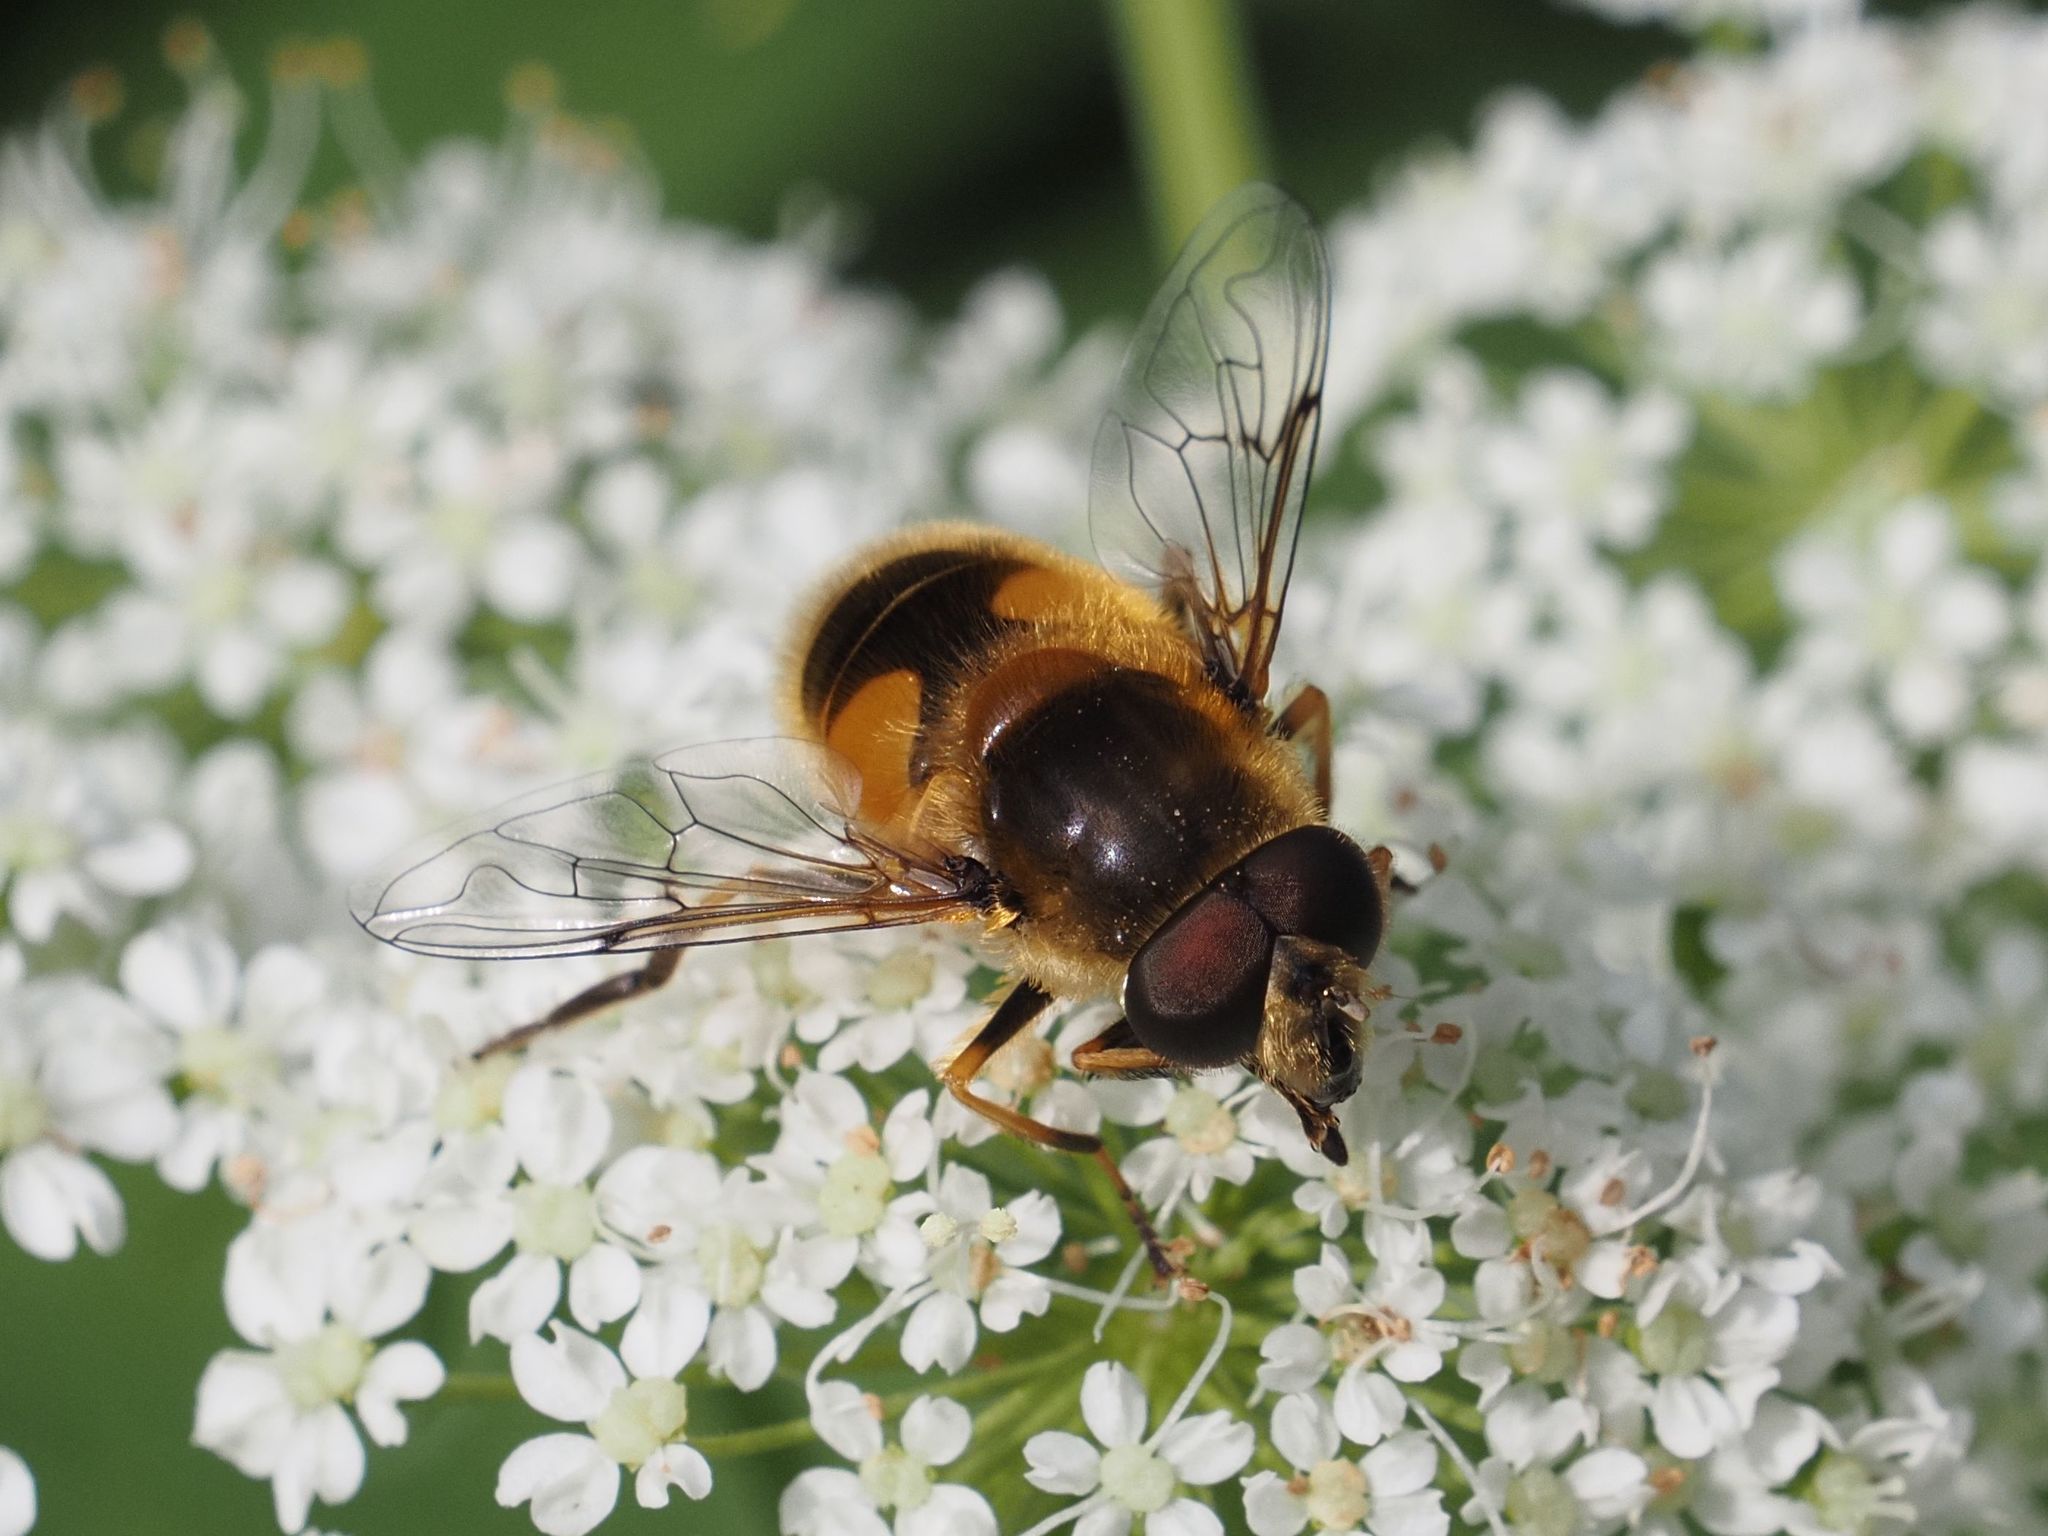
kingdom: Animalia
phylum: Arthropoda
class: Insecta
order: Diptera
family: Syrphidae
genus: Eristalis
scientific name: Eristalis jugorum
